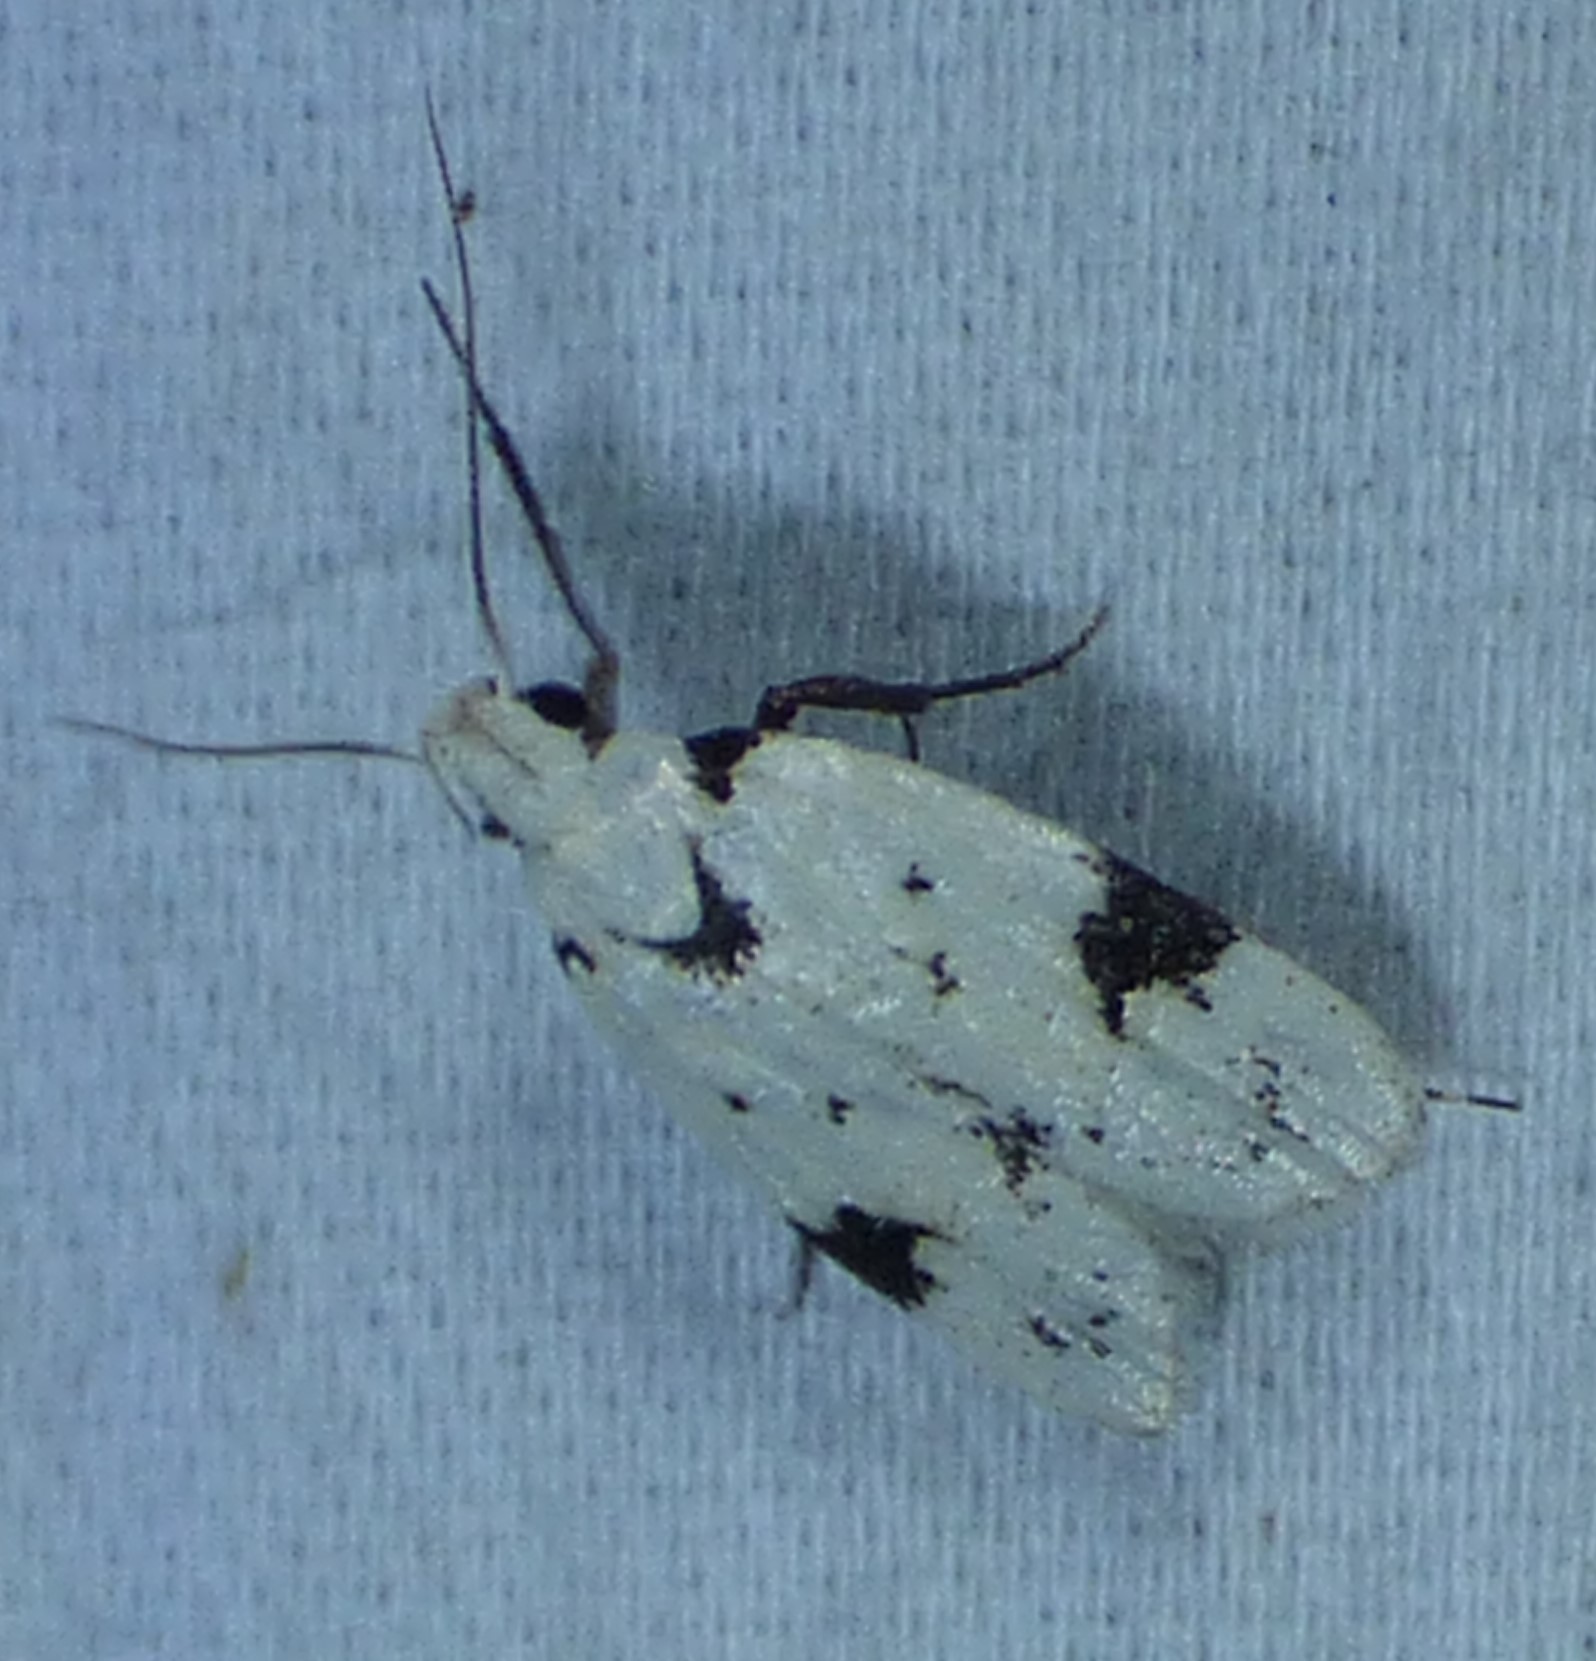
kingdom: Animalia
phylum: Arthropoda
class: Insecta
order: Lepidoptera
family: Oecophoridae
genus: Inga
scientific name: Inga sparsiciliella
